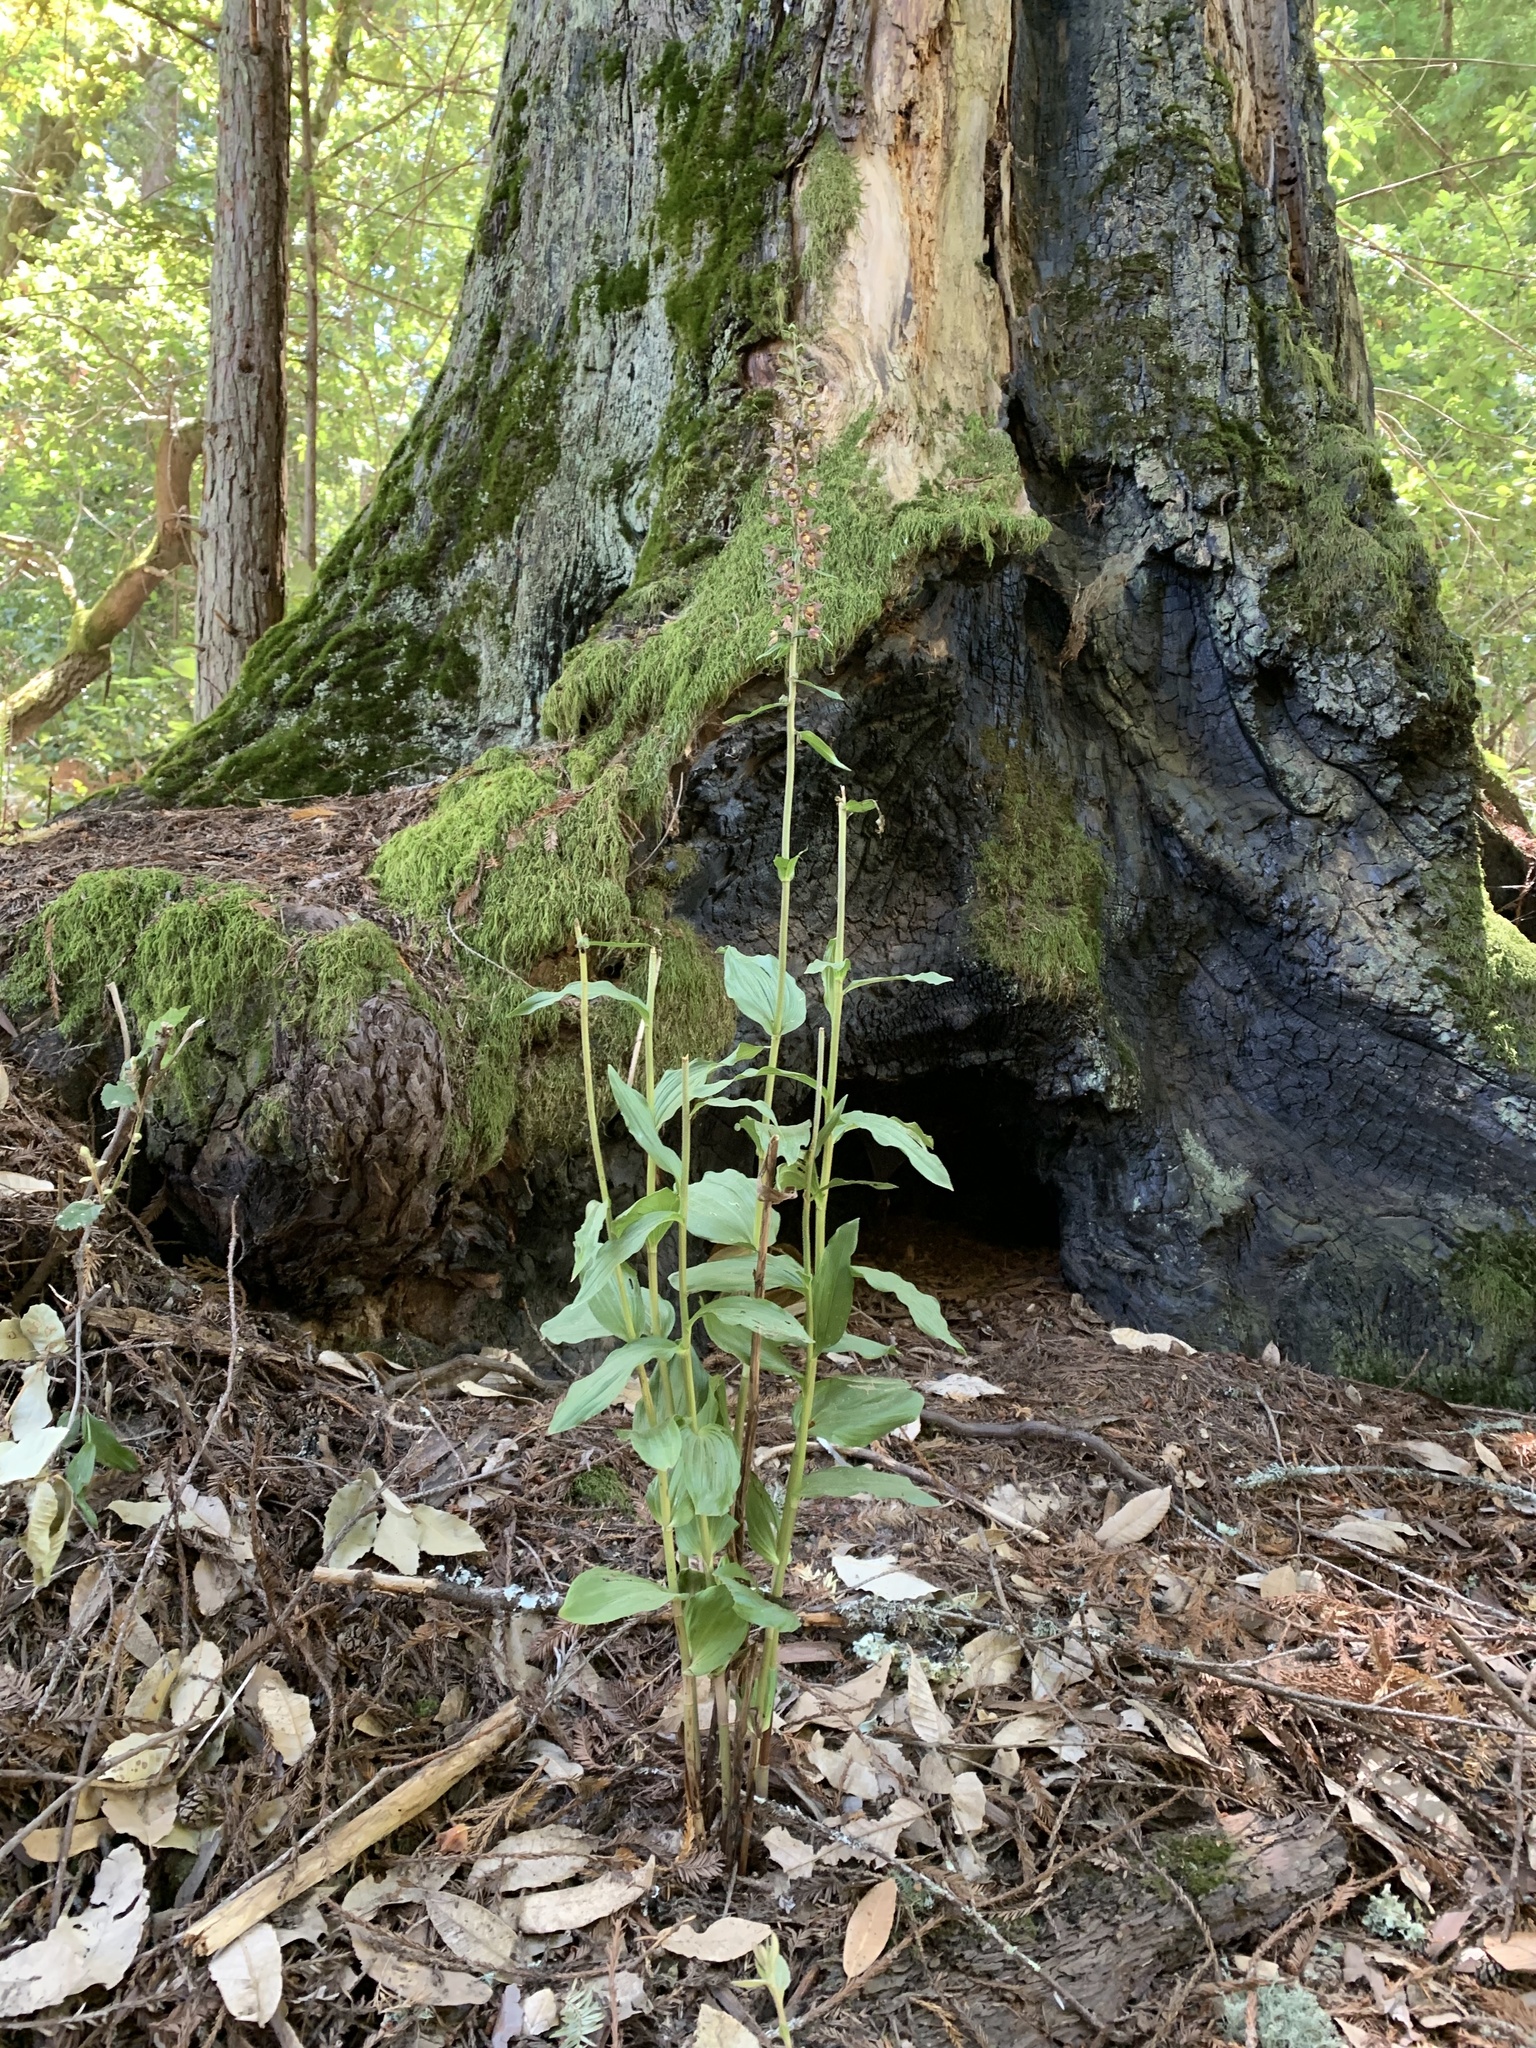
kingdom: Plantae
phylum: Tracheophyta
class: Liliopsida
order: Asparagales
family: Orchidaceae
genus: Epipactis
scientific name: Epipactis helleborine
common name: Broad-leaved helleborine
